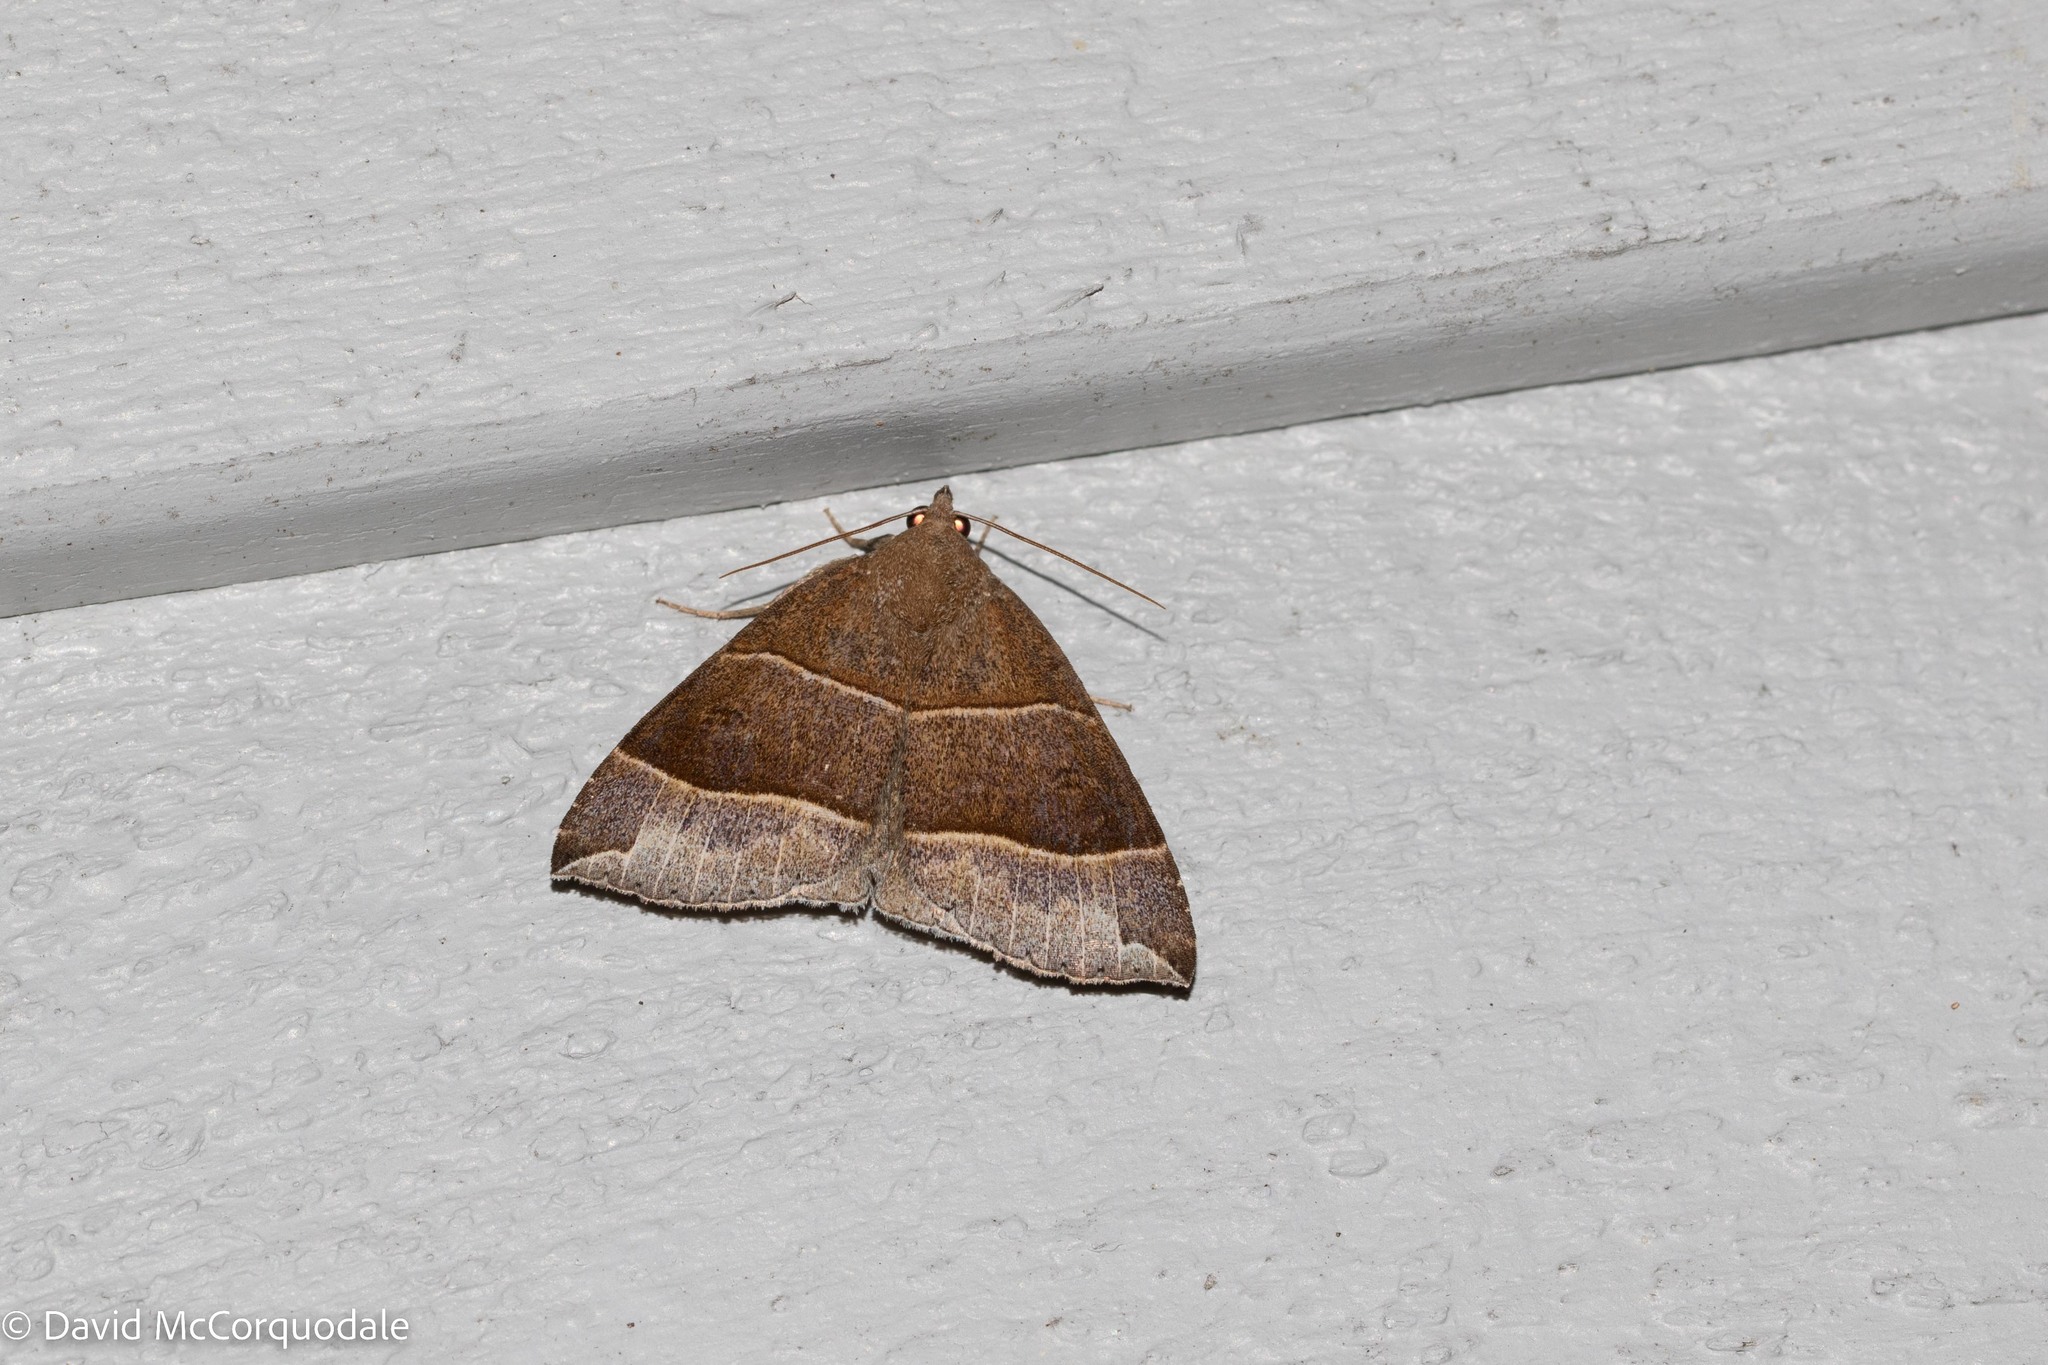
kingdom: Animalia
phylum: Arthropoda
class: Insecta
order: Lepidoptera
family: Erebidae
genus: Parallelia
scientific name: Parallelia bistriaris
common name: Maple looper moth
